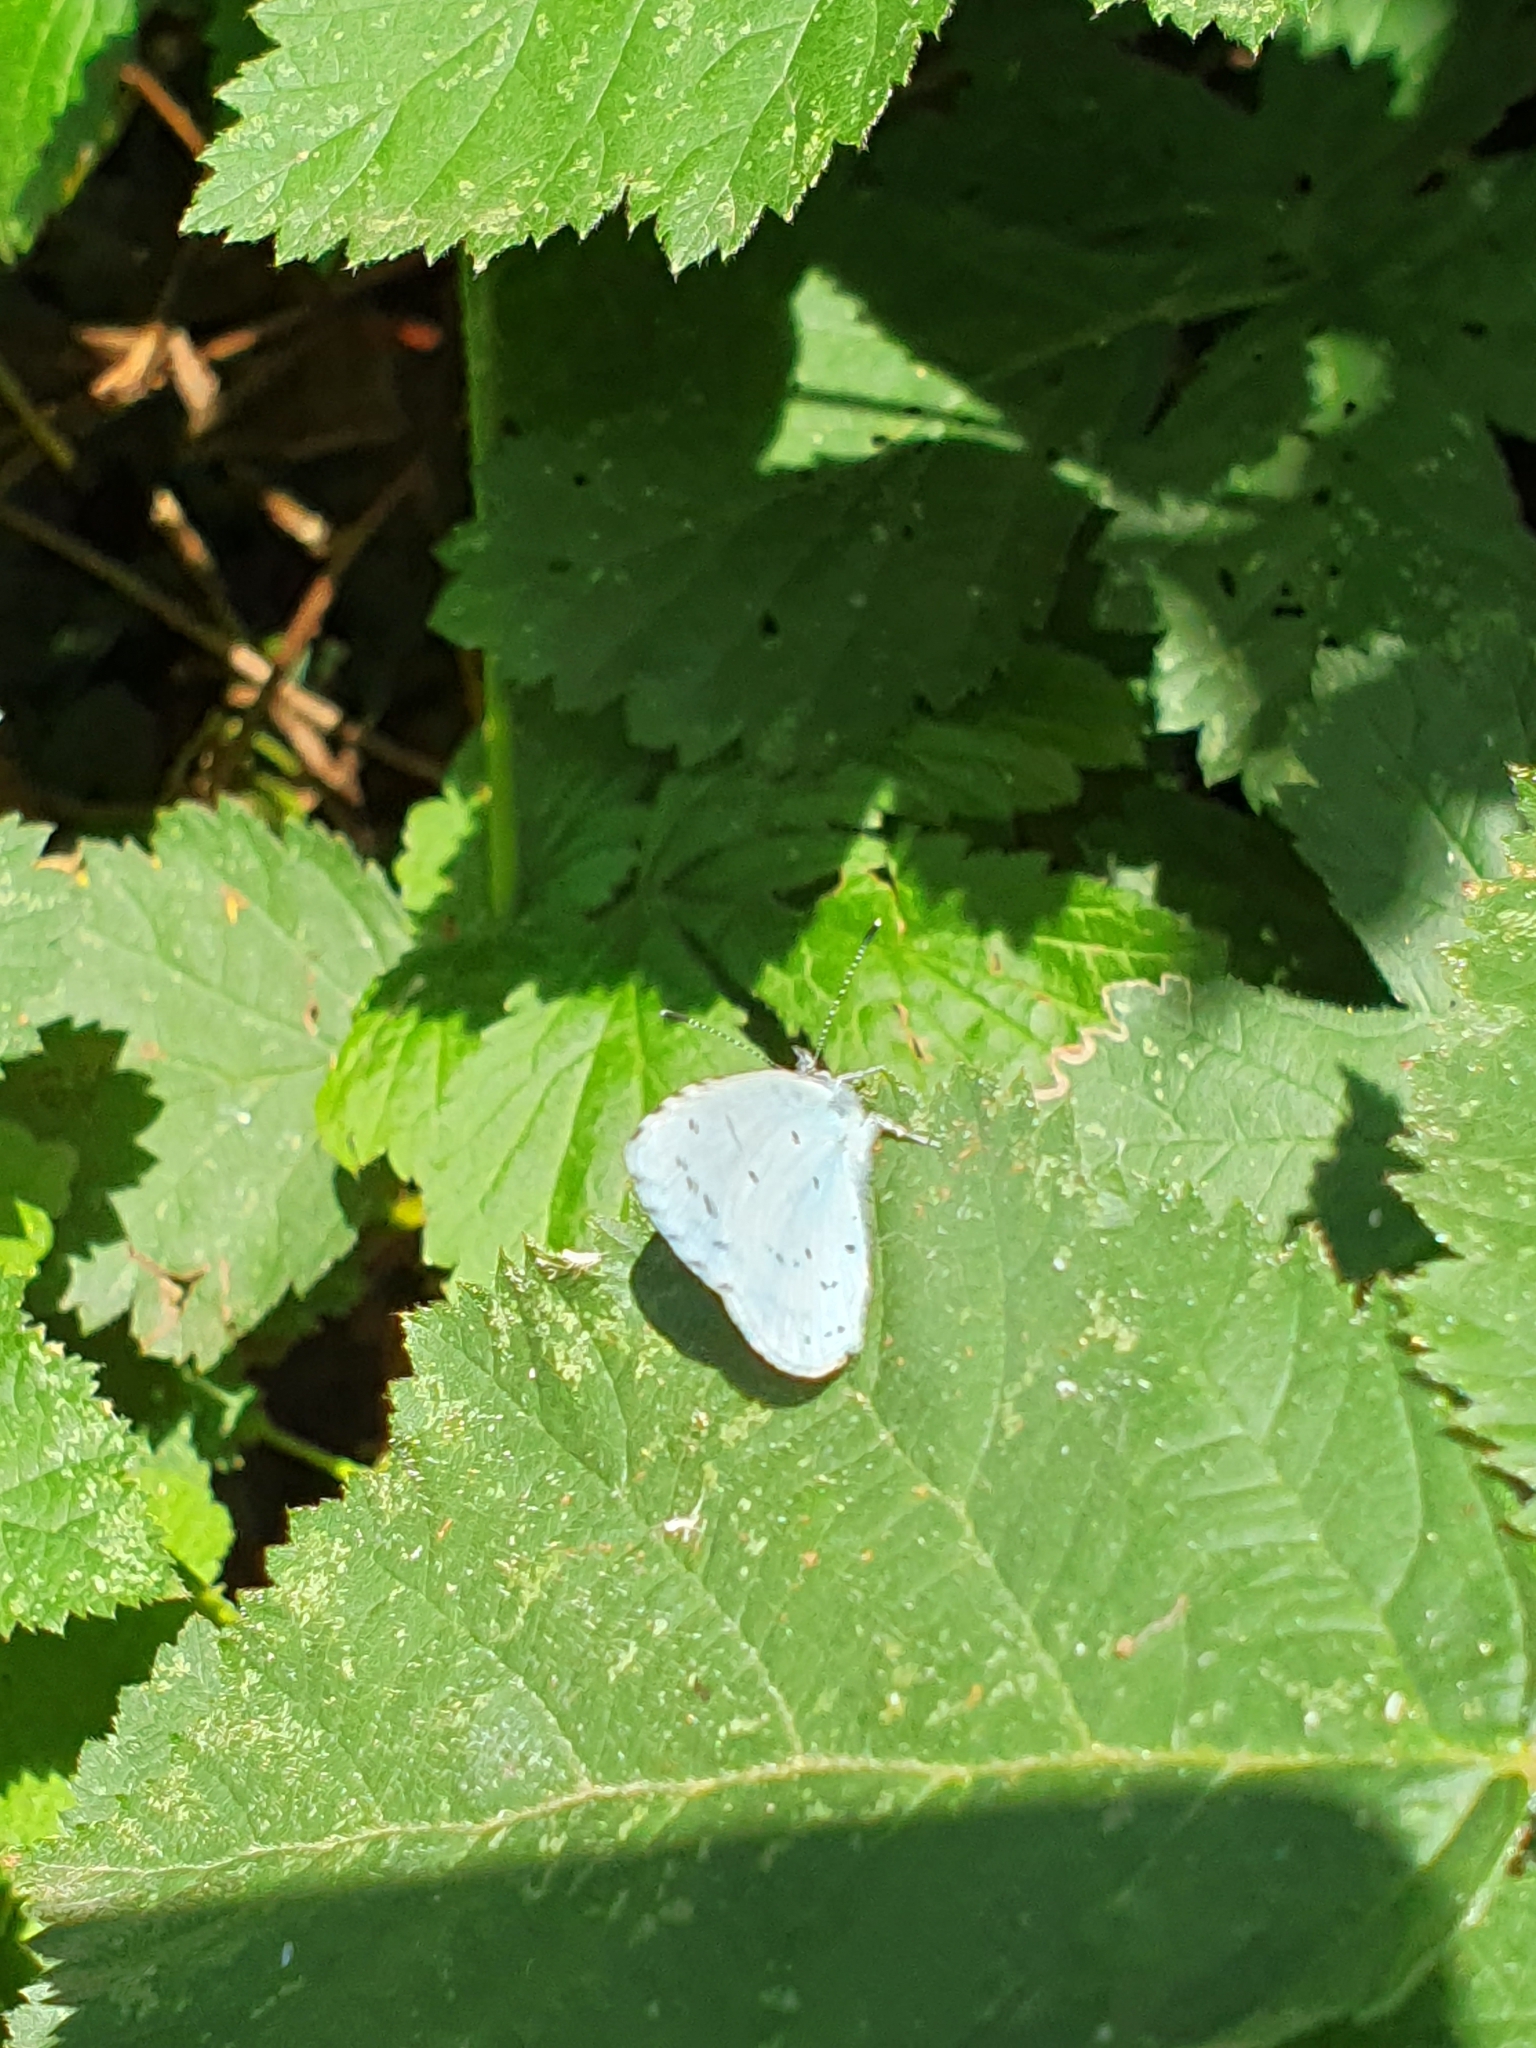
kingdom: Animalia
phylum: Arthropoda
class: Insecta
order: Lepidoptera
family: Lycaenidae
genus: Celastrina
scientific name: Celastrina argiolus
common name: Holly blue
